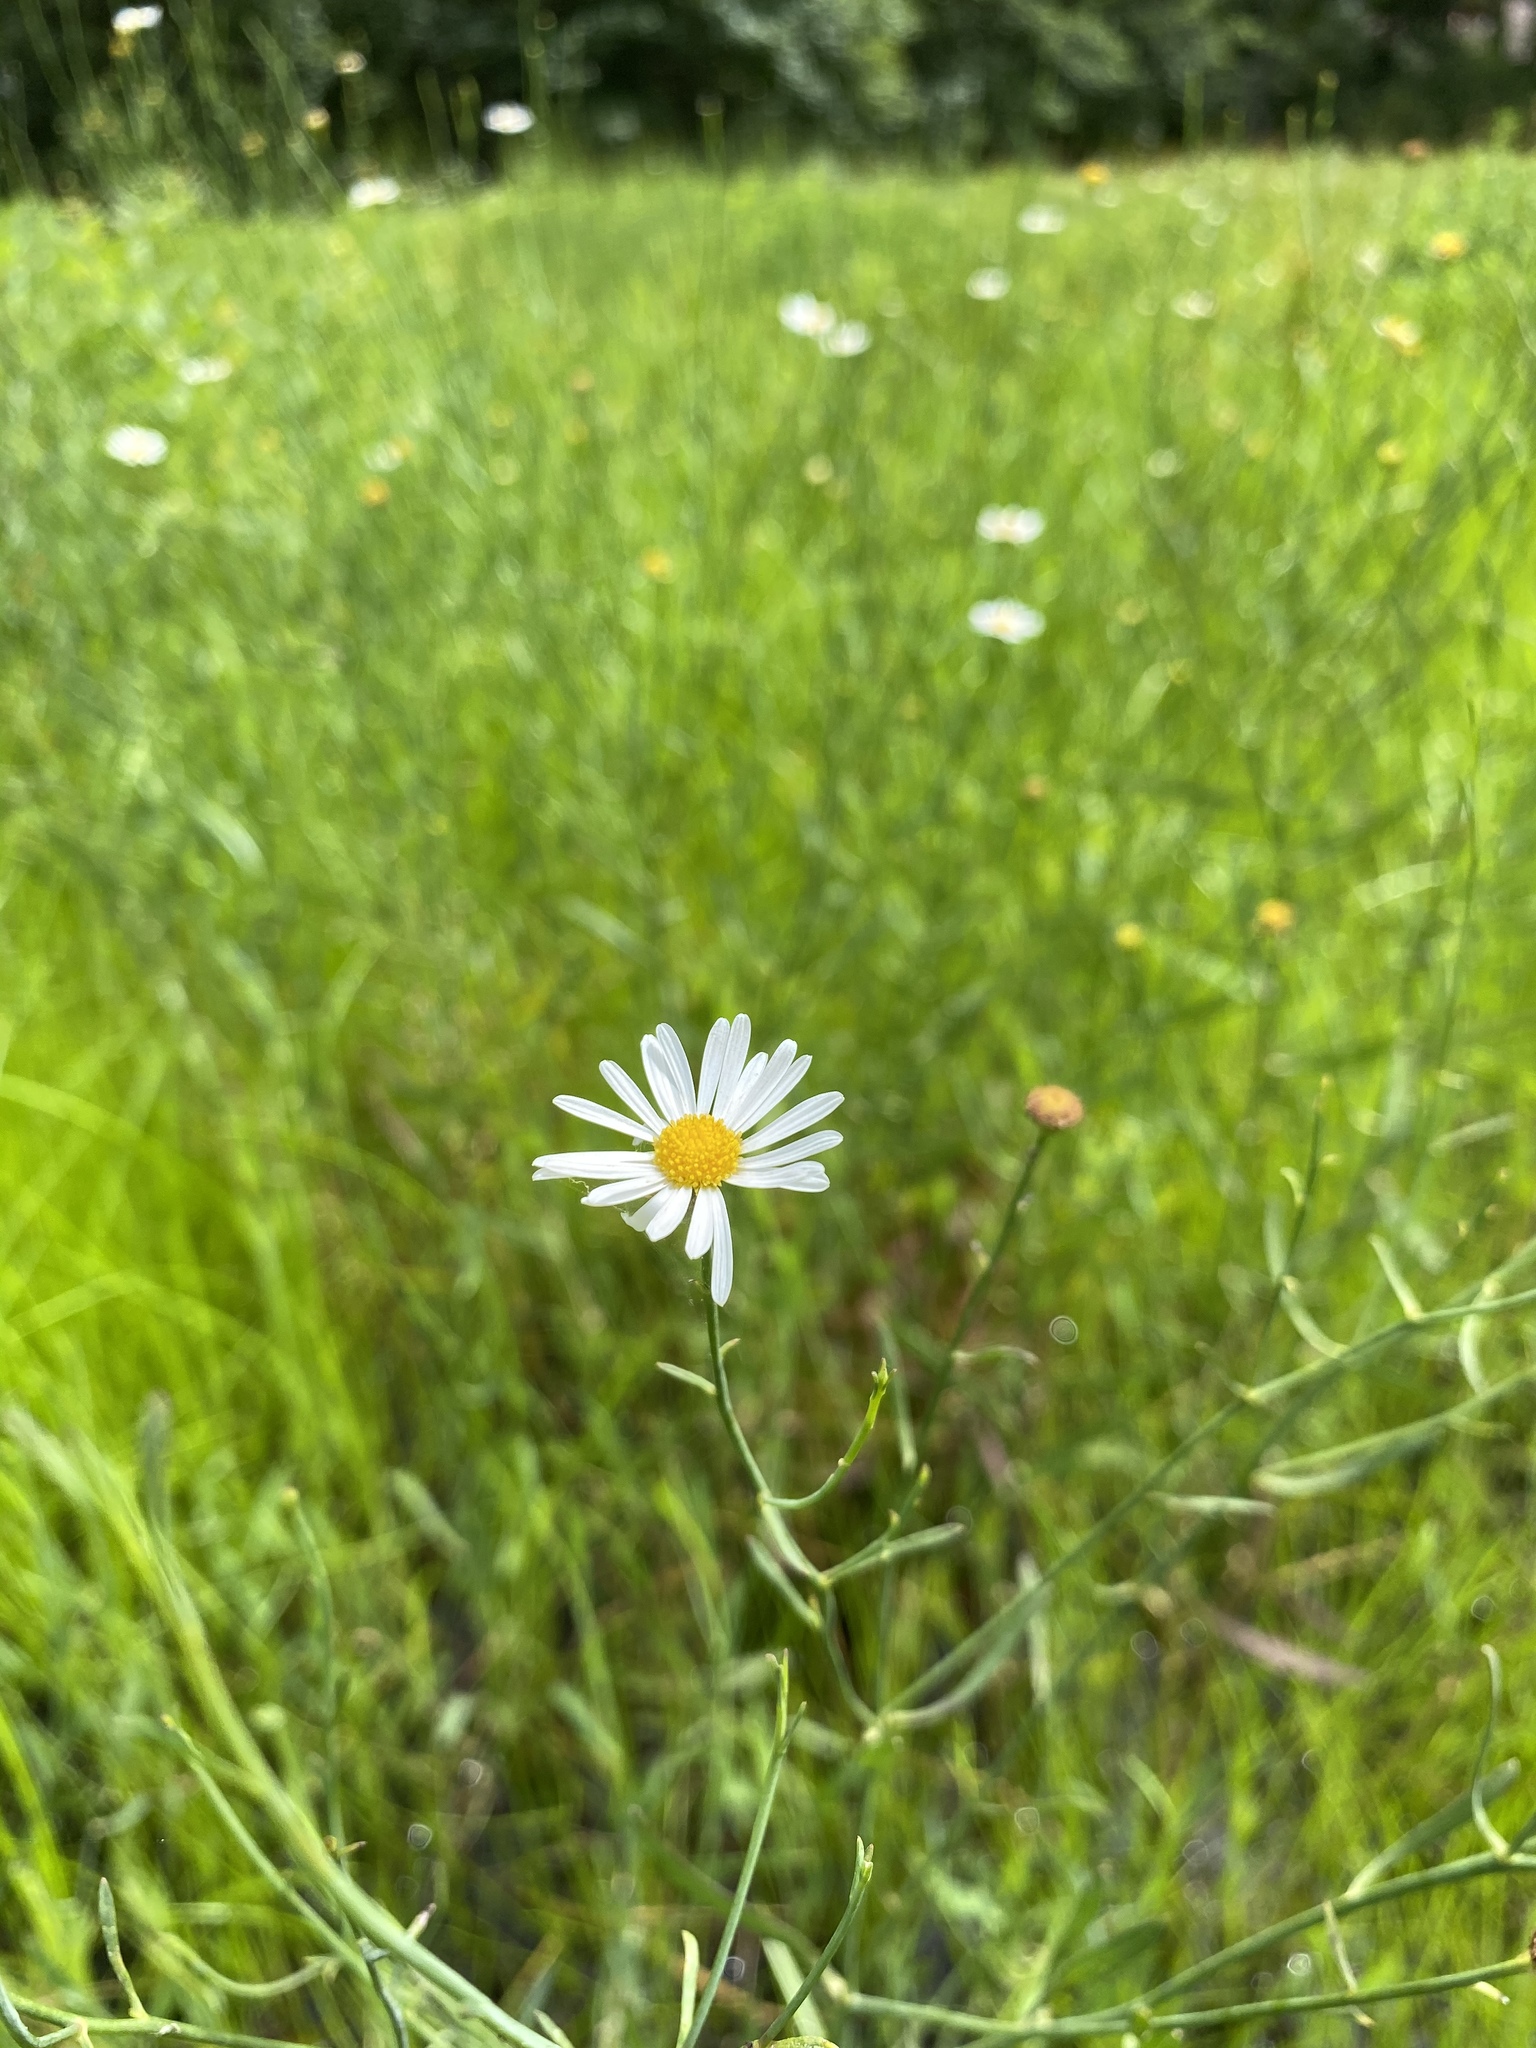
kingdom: Plantae
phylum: Tracheophyta
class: Magnoliopsida
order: Asterales
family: Asteraceae
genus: Boltonia
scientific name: Boltonia asteroides
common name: False chamomile
